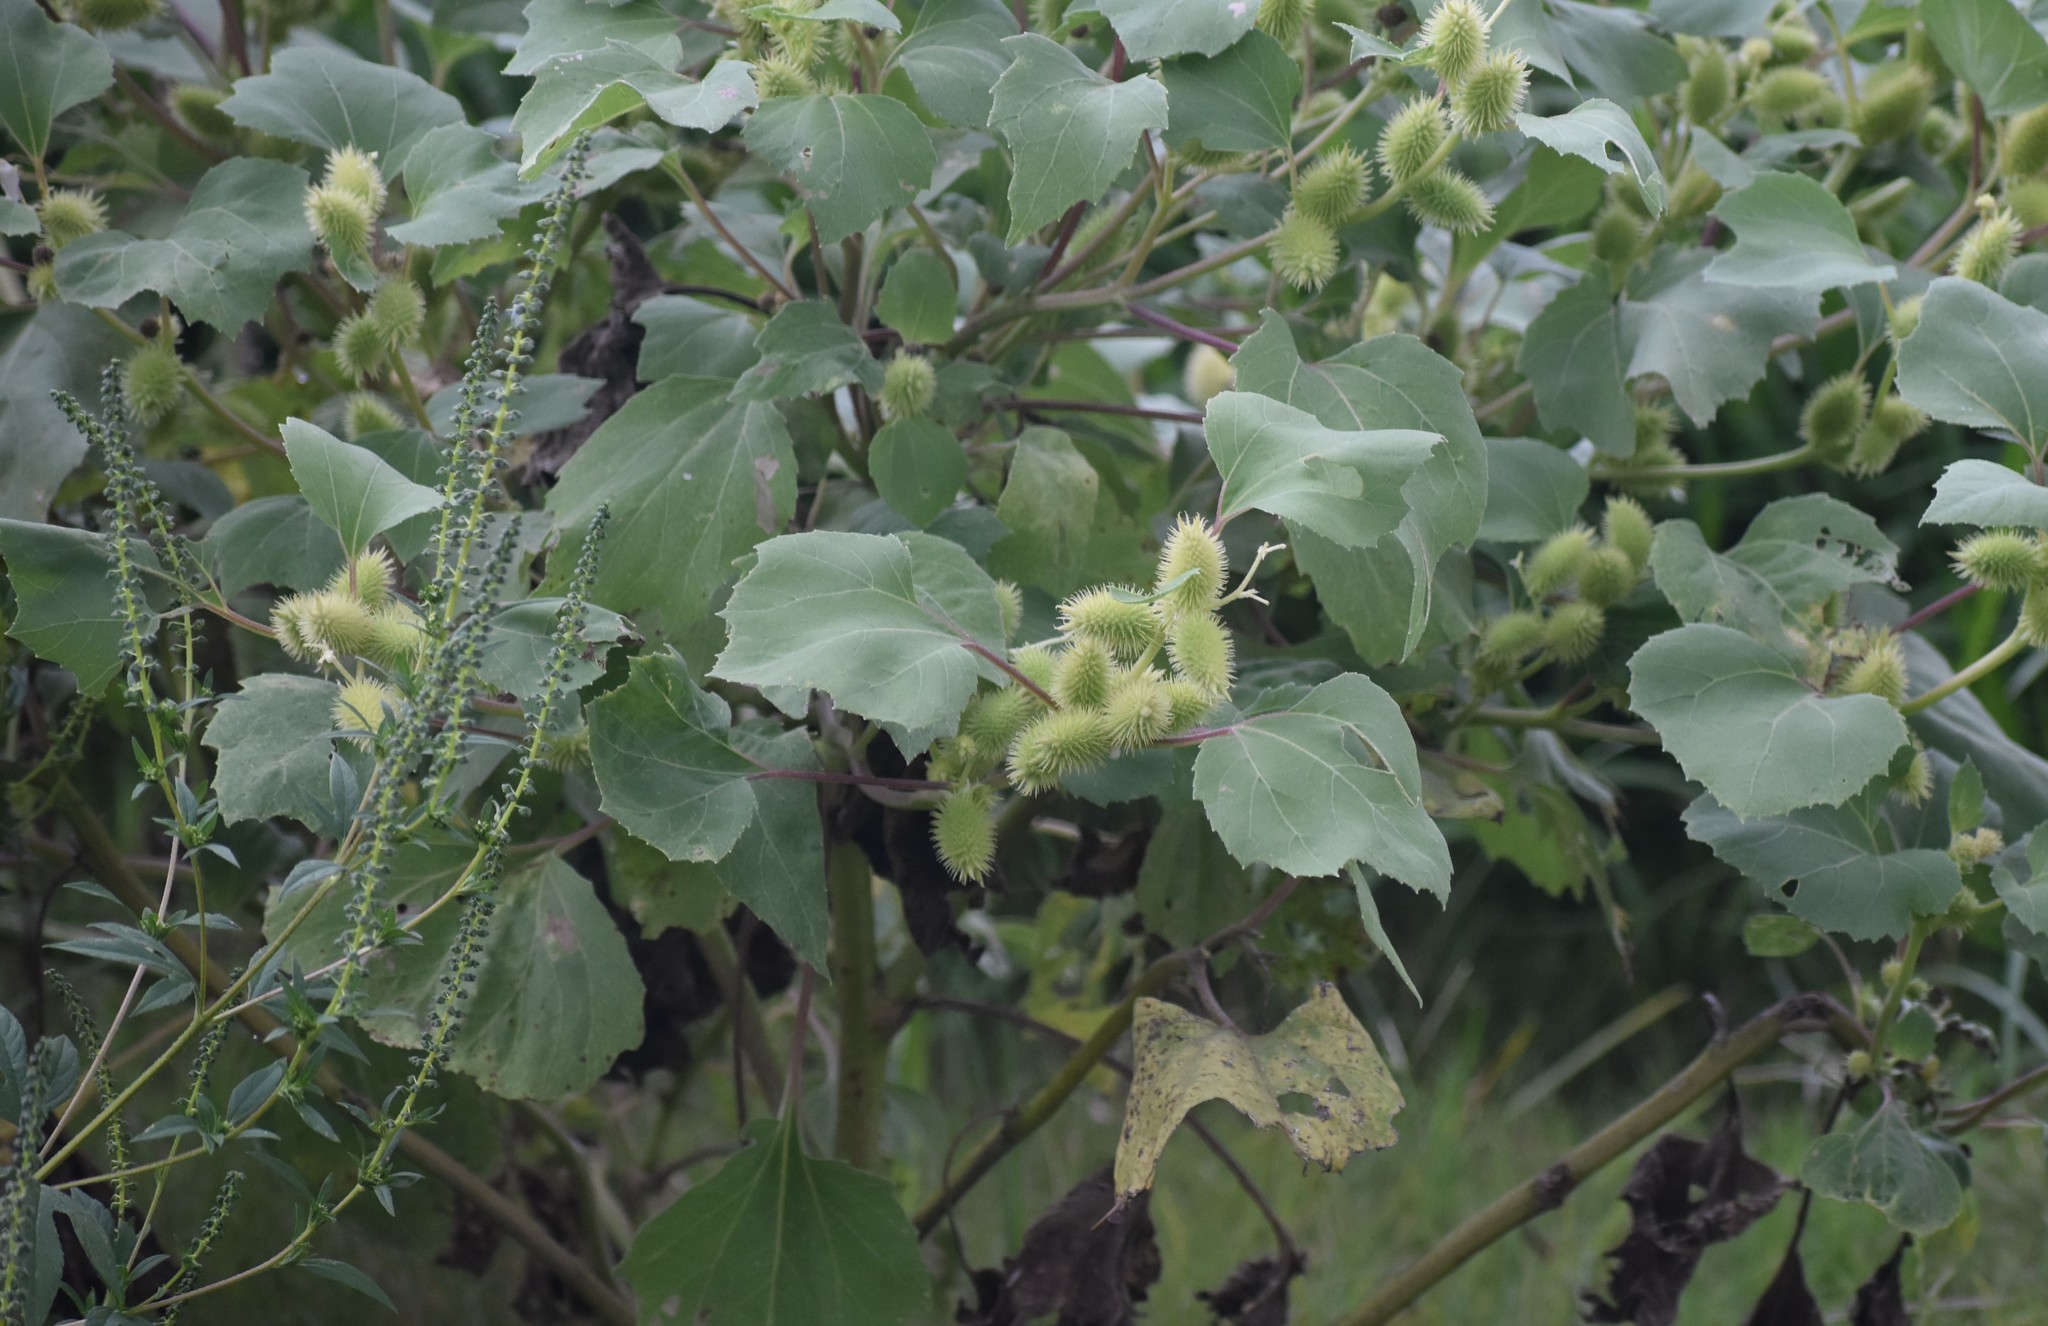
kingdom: Plantae
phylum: Tracheophyta
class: Magnoliopsida
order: Asterales
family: Asteraceae
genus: Xanthium
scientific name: Xanthium strumarium
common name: Rough cocklebur
